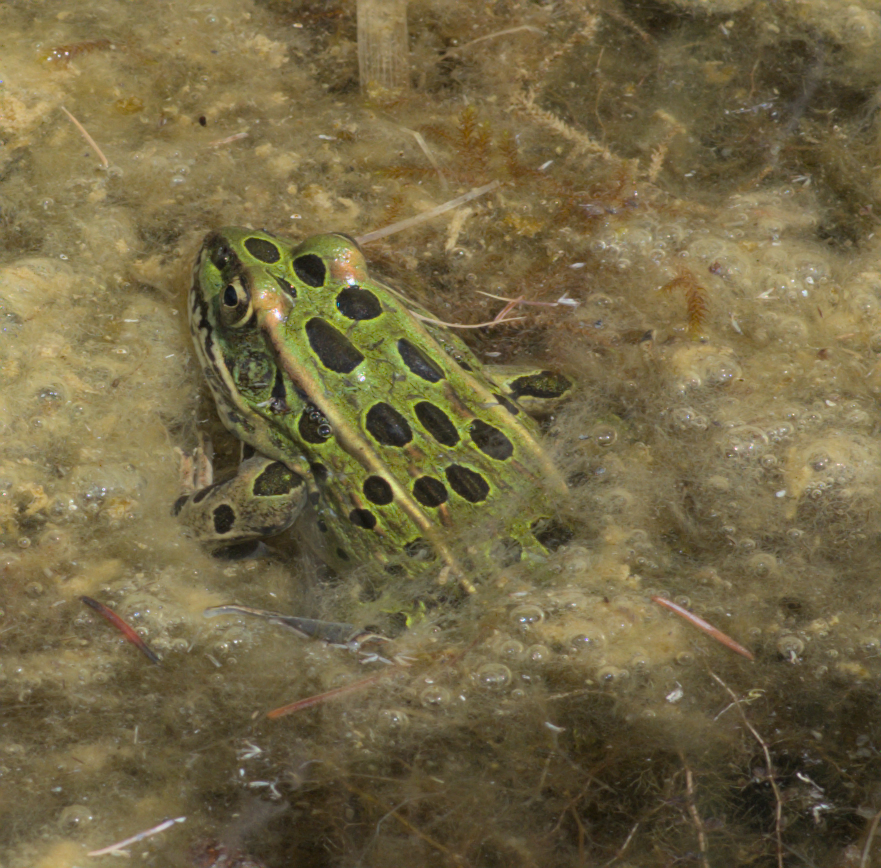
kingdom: Animalia
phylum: Chordata
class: Amphibia
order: Anura
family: Ranidae
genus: Lithobates
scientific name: Lithobates pipiens
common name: Northern leopard frog
